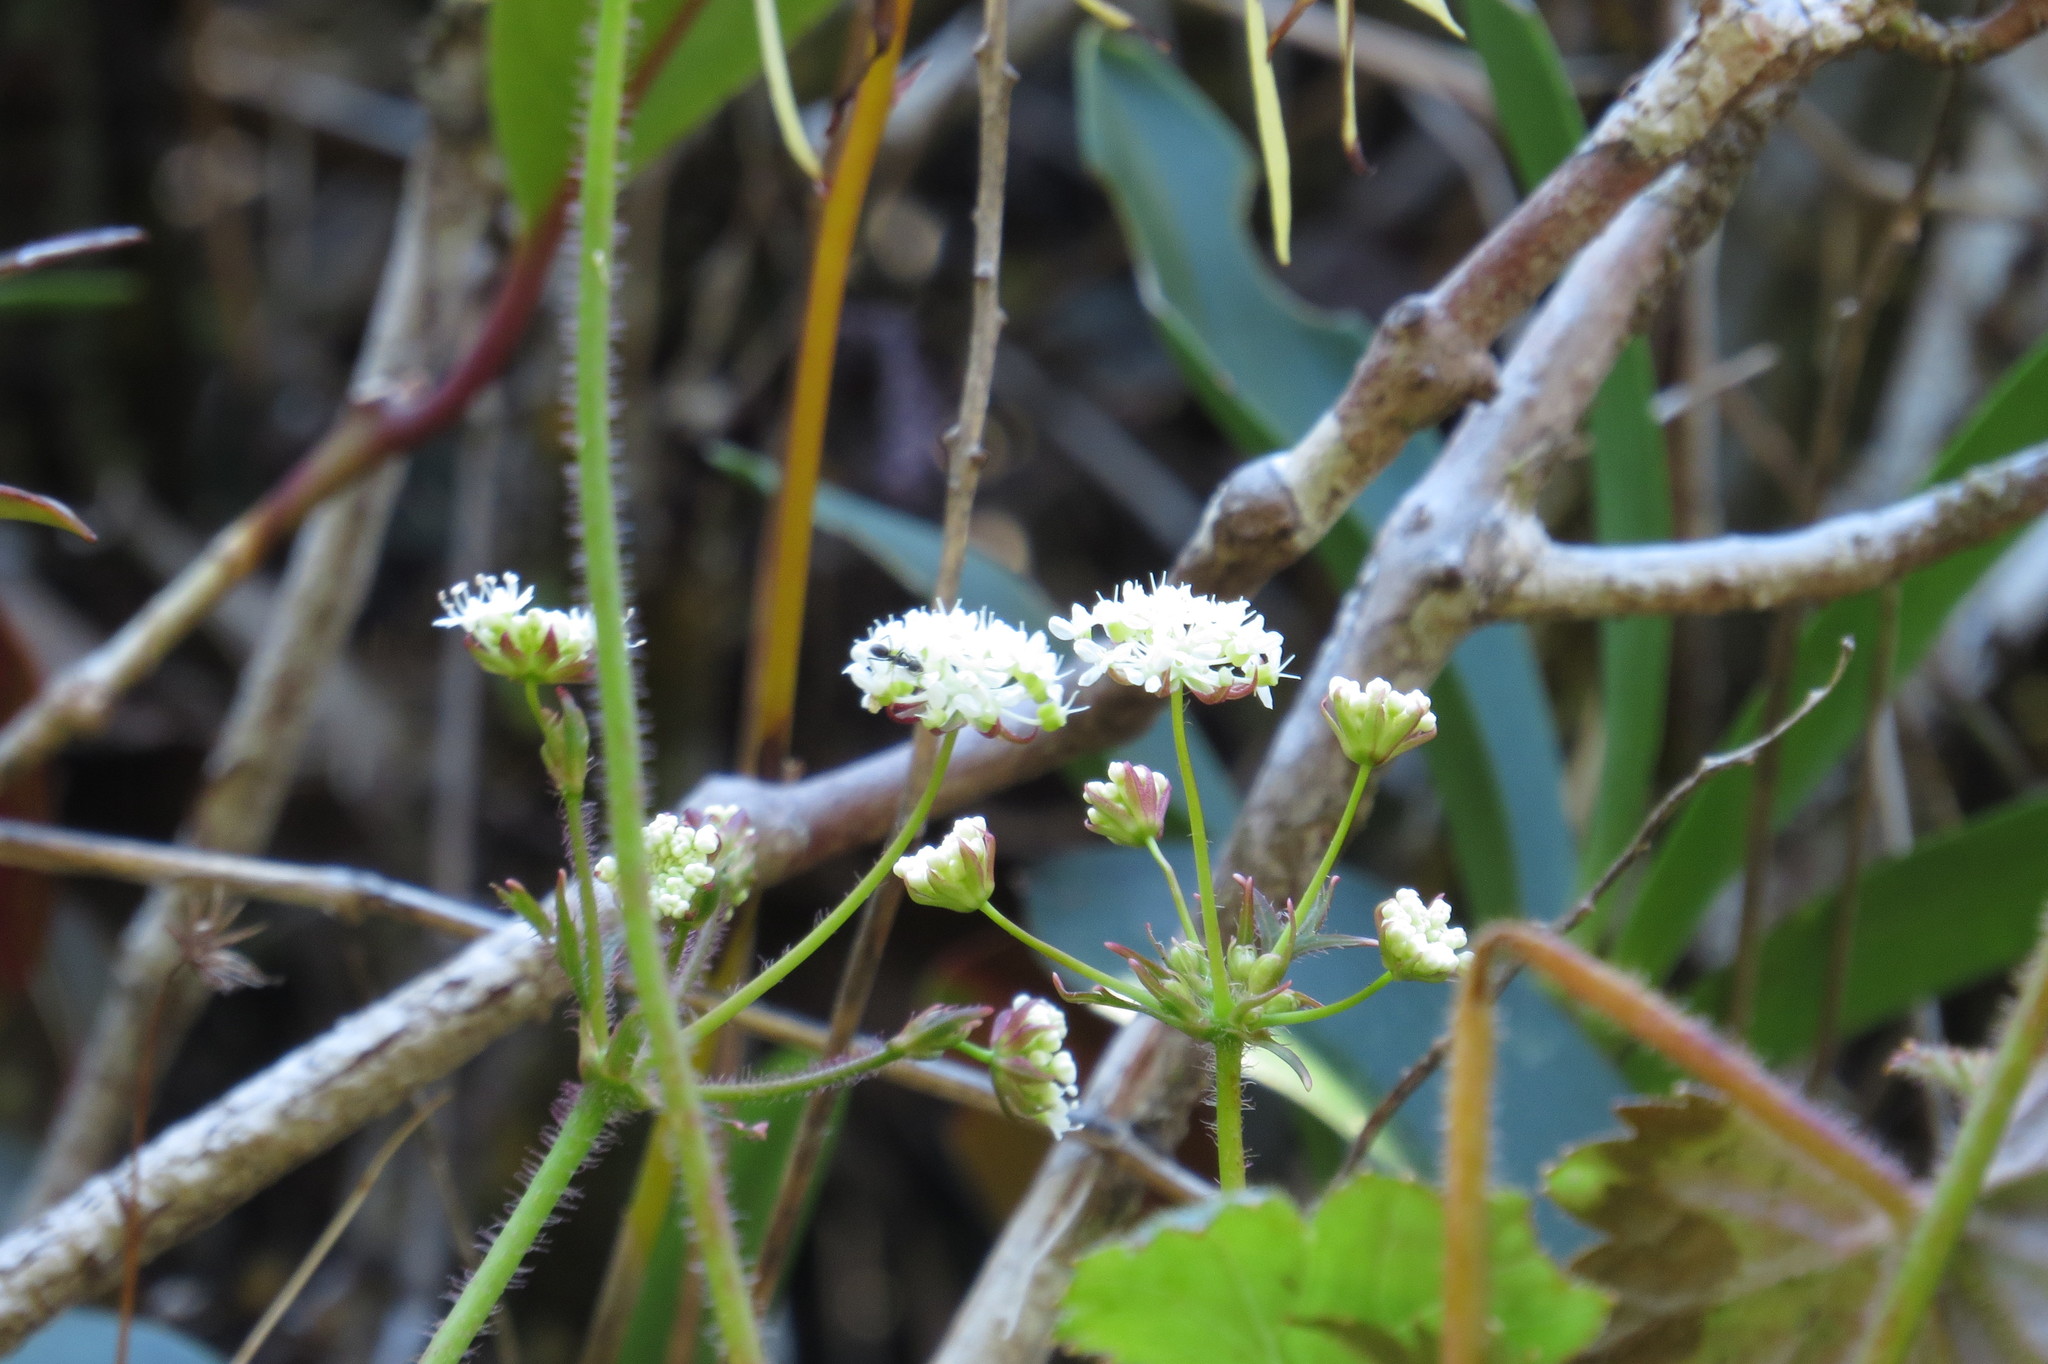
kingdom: Plantae
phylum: Tracheophyta
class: Magnoliopsida
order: Apiales
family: Araliaceae
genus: Trachymene
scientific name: Trachymene geraniifolia
